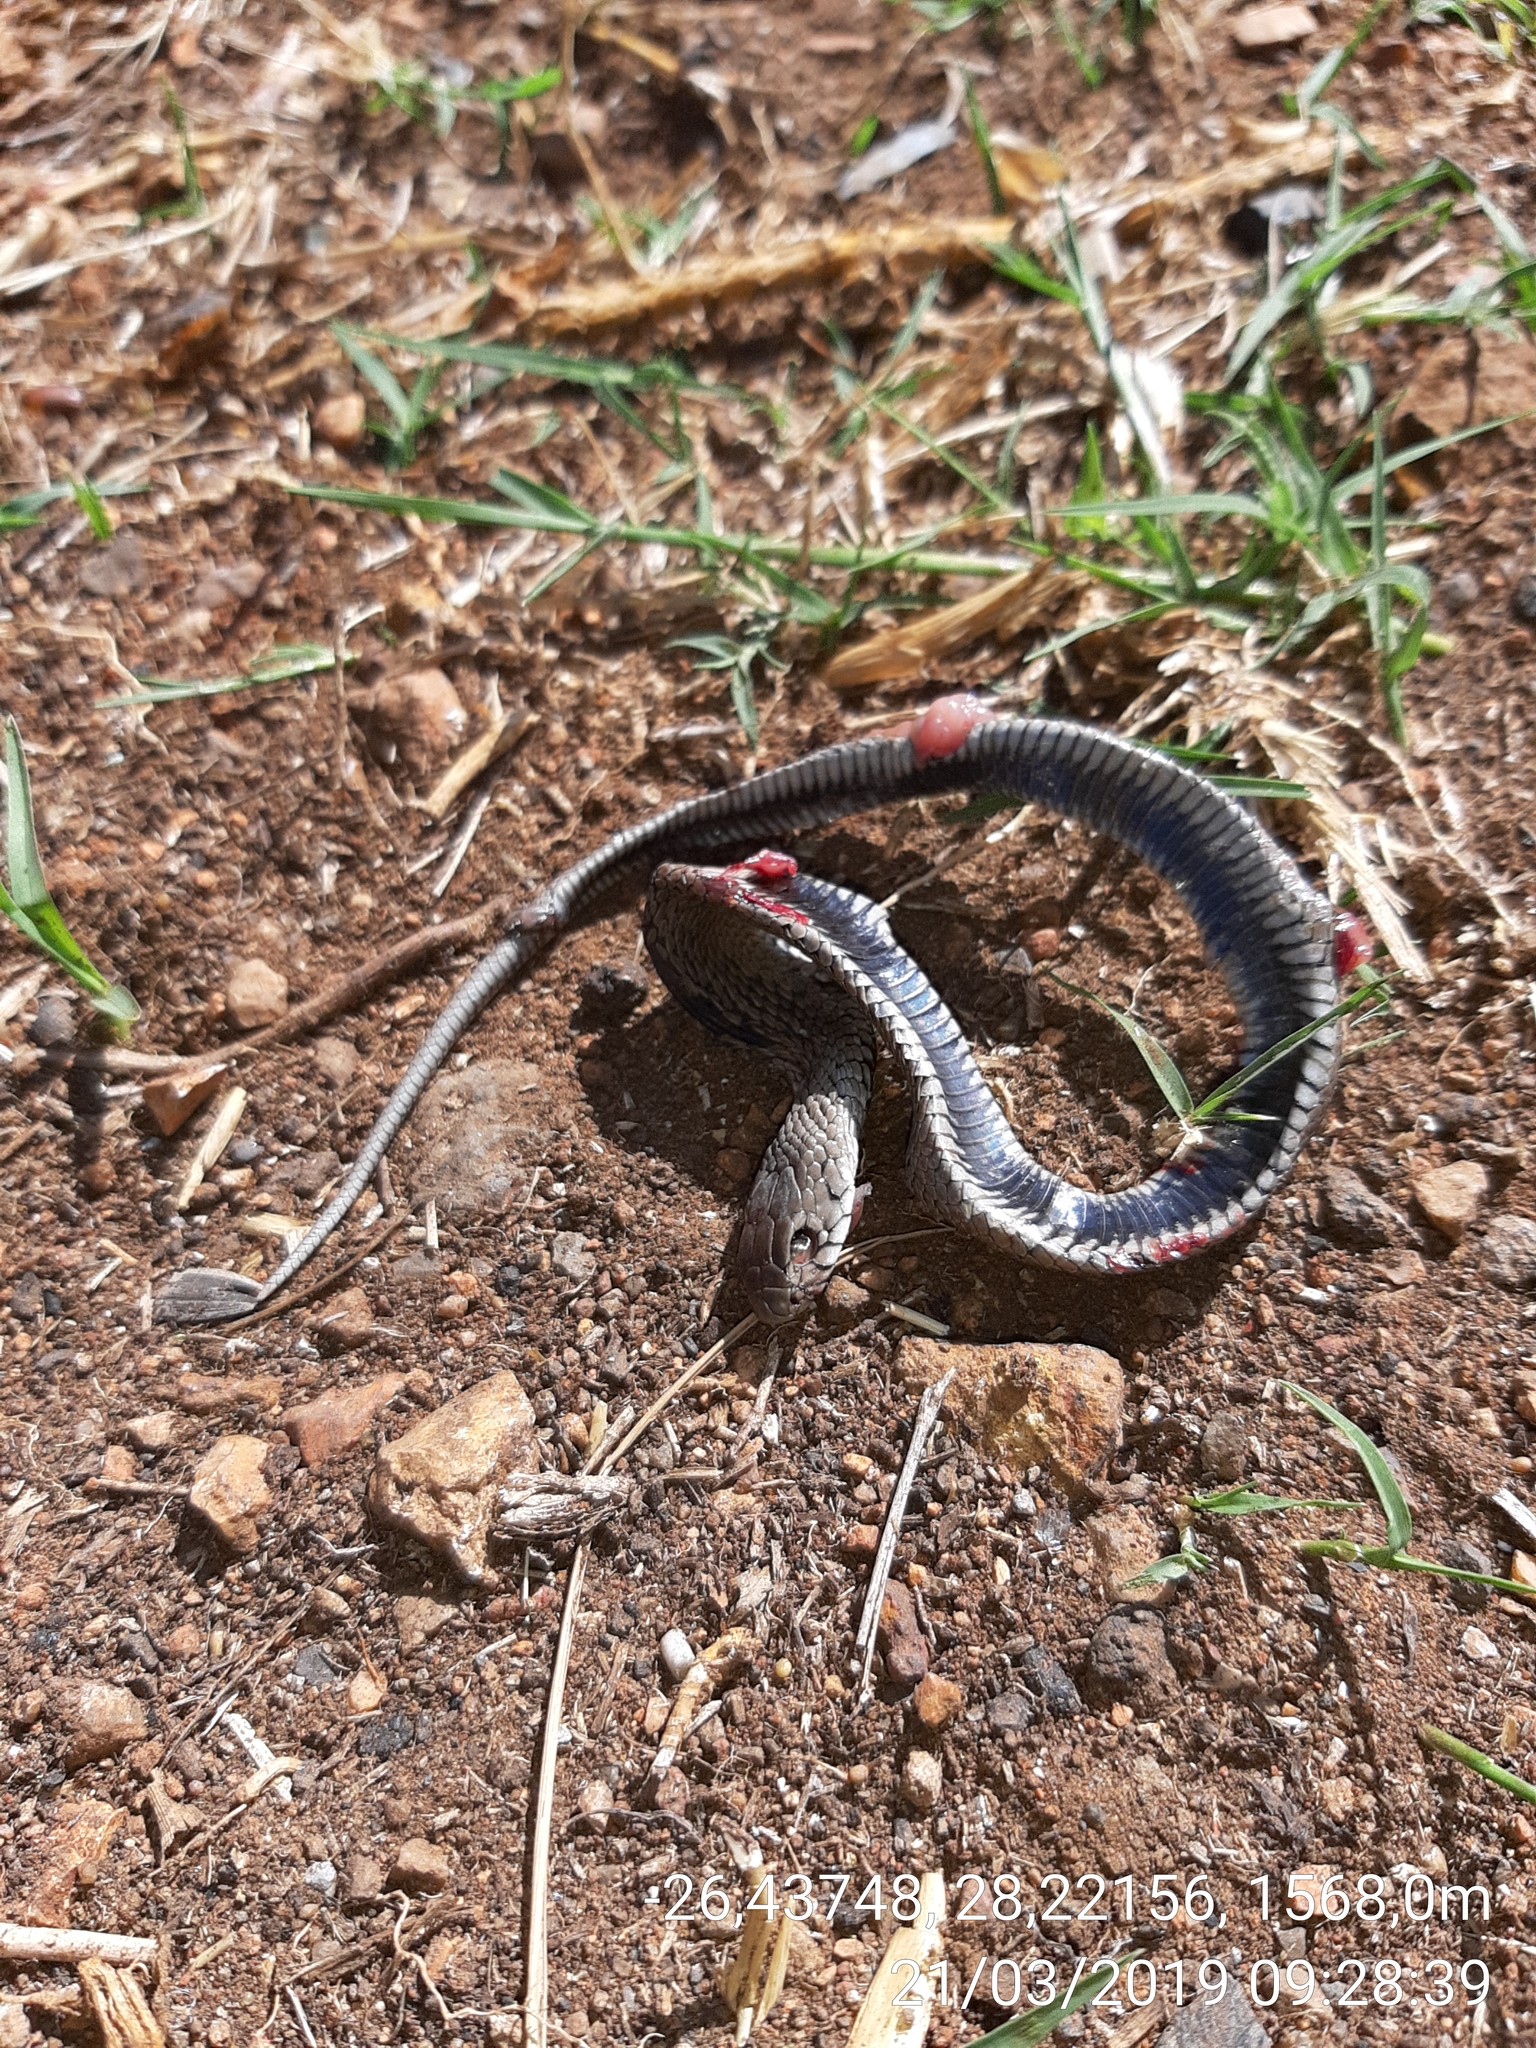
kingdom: Animalia
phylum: Chordata
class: Squamata
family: Elapidae
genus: Hemachatus
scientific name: Hemachatus haemachatus
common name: Ring-necked spitting cobra
